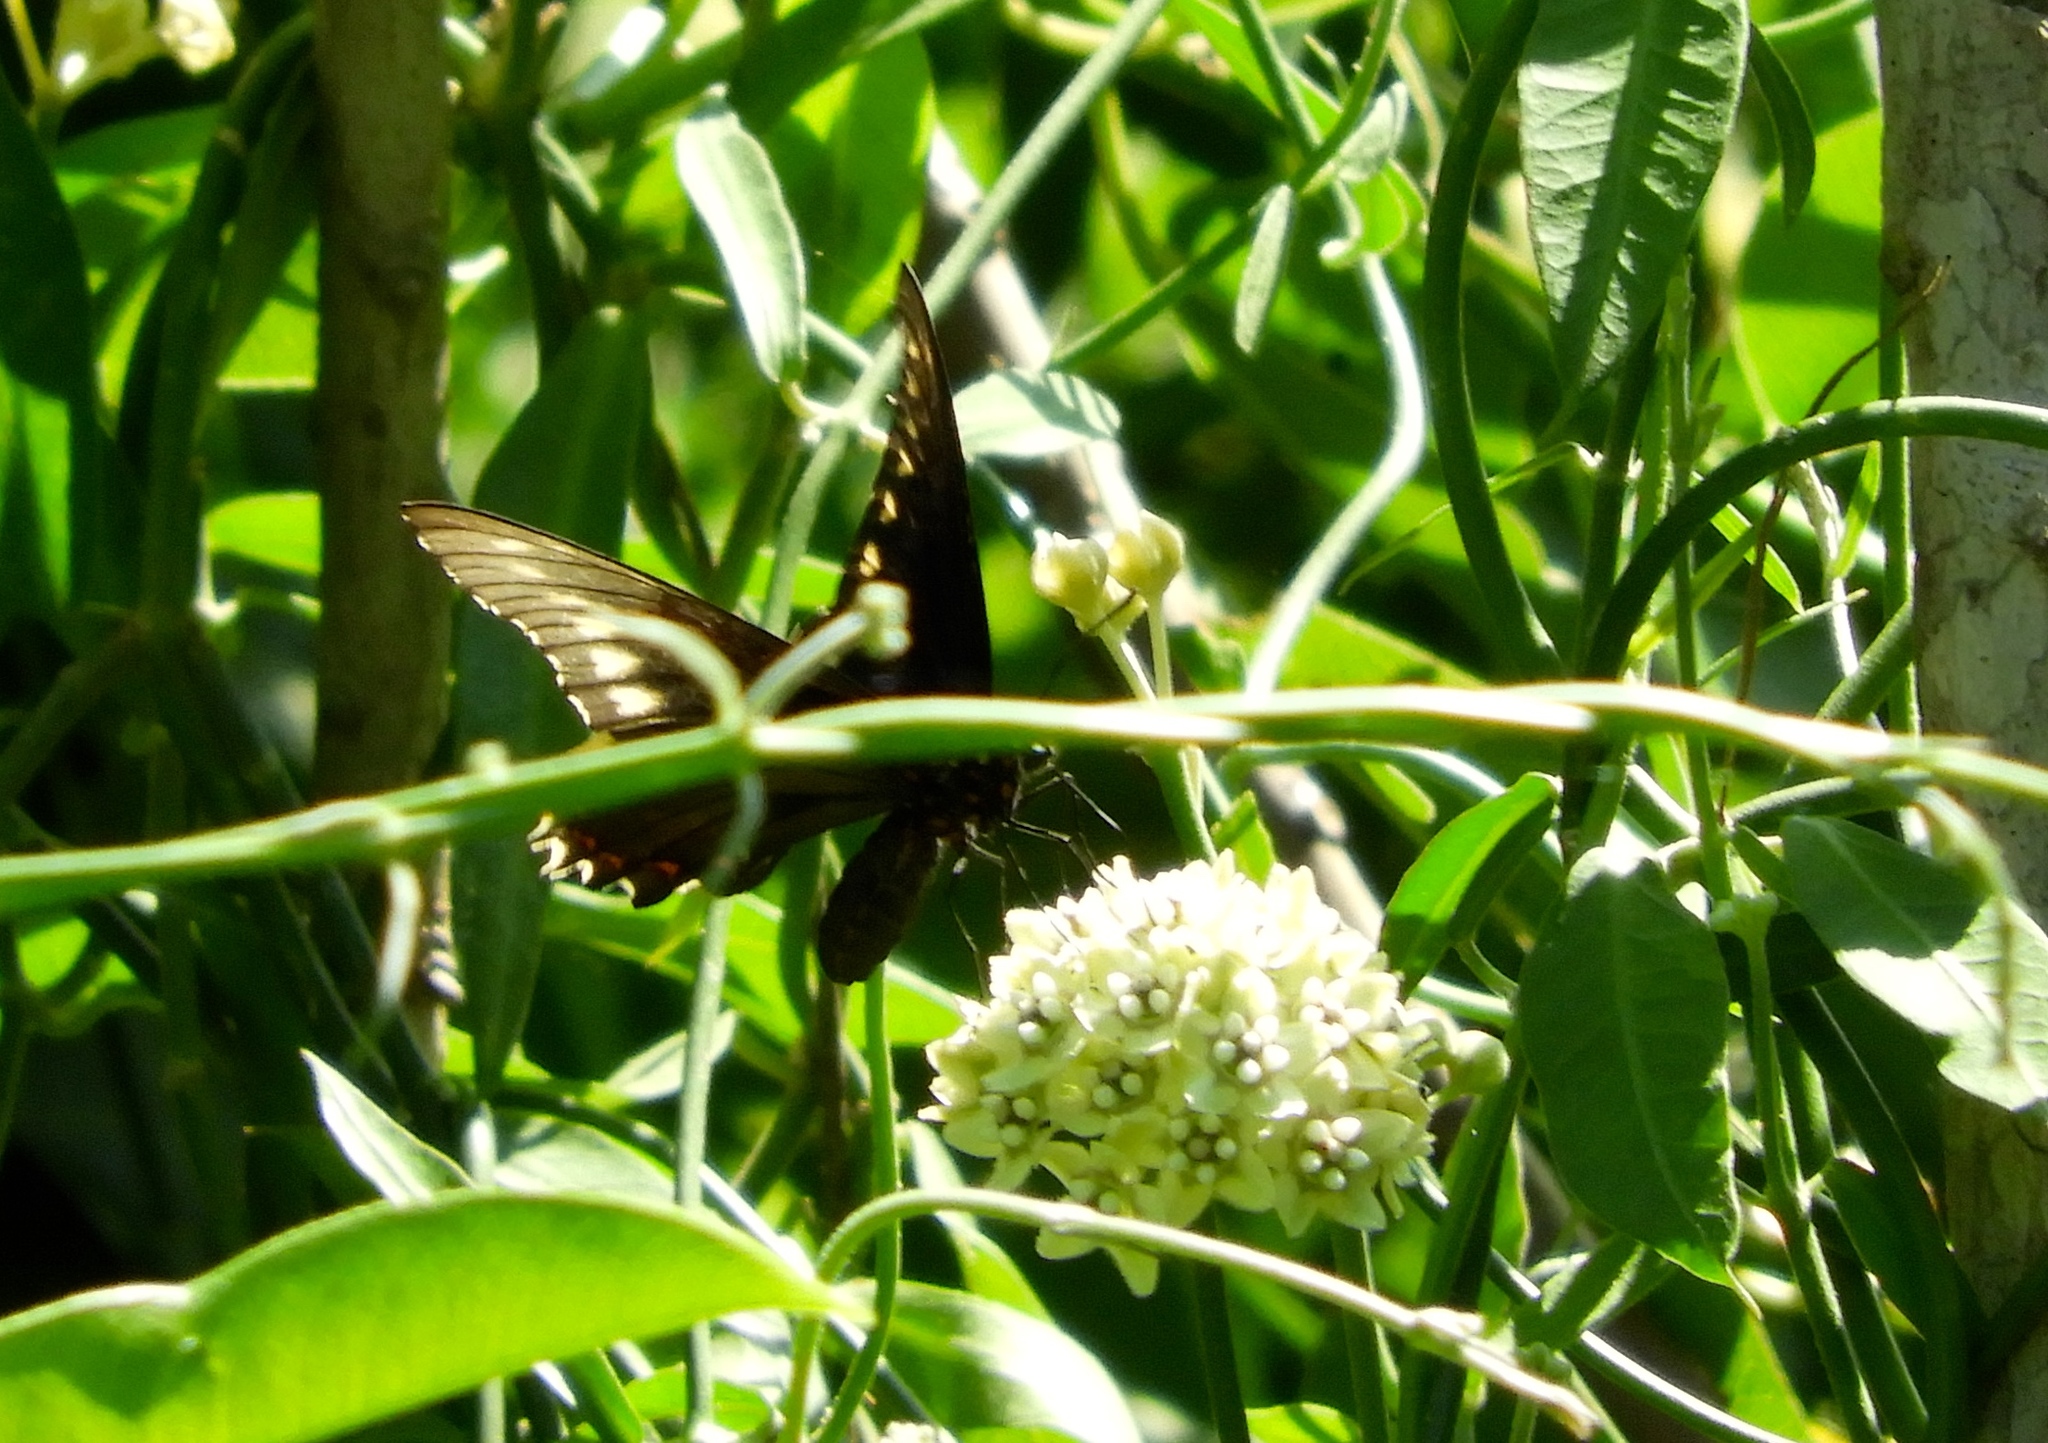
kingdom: Animalia
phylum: Arthropoda
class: Insecta
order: Lepidoptera
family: Papilionidae
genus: Battus
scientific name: Battus polydamas
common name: Polydamas swallowtail
